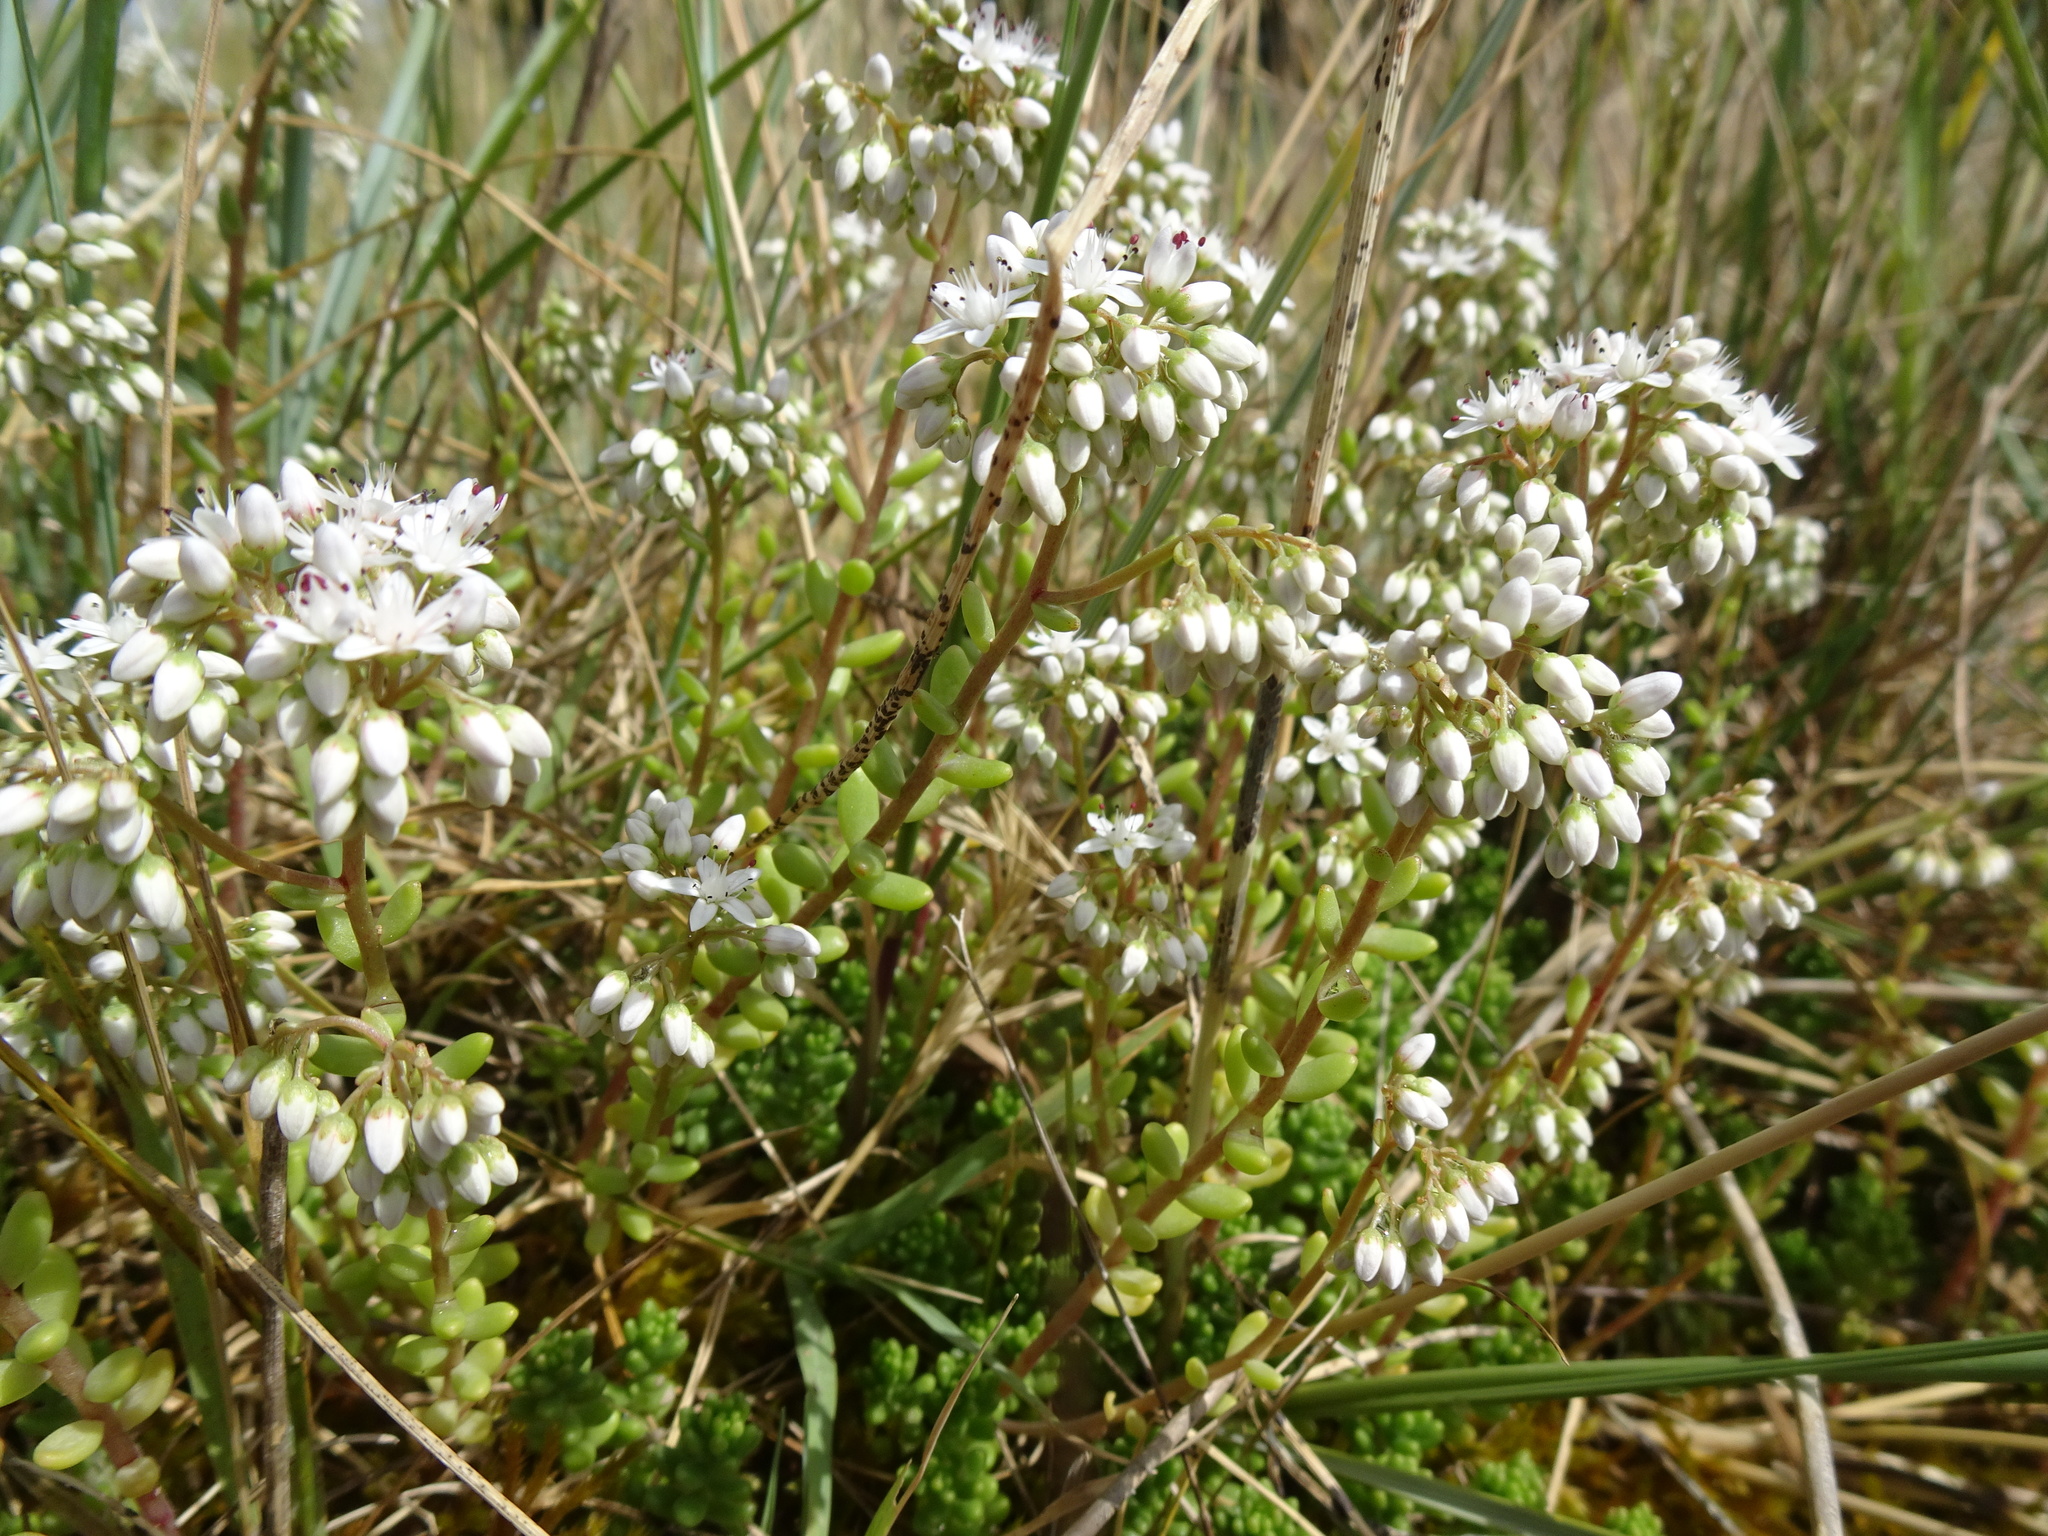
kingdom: Plantae
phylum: Tracheophyta
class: Magnoliopsida
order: Saxifragales
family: Crassulaceae
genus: Sedum
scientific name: Sedum album
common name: White stonecrop
